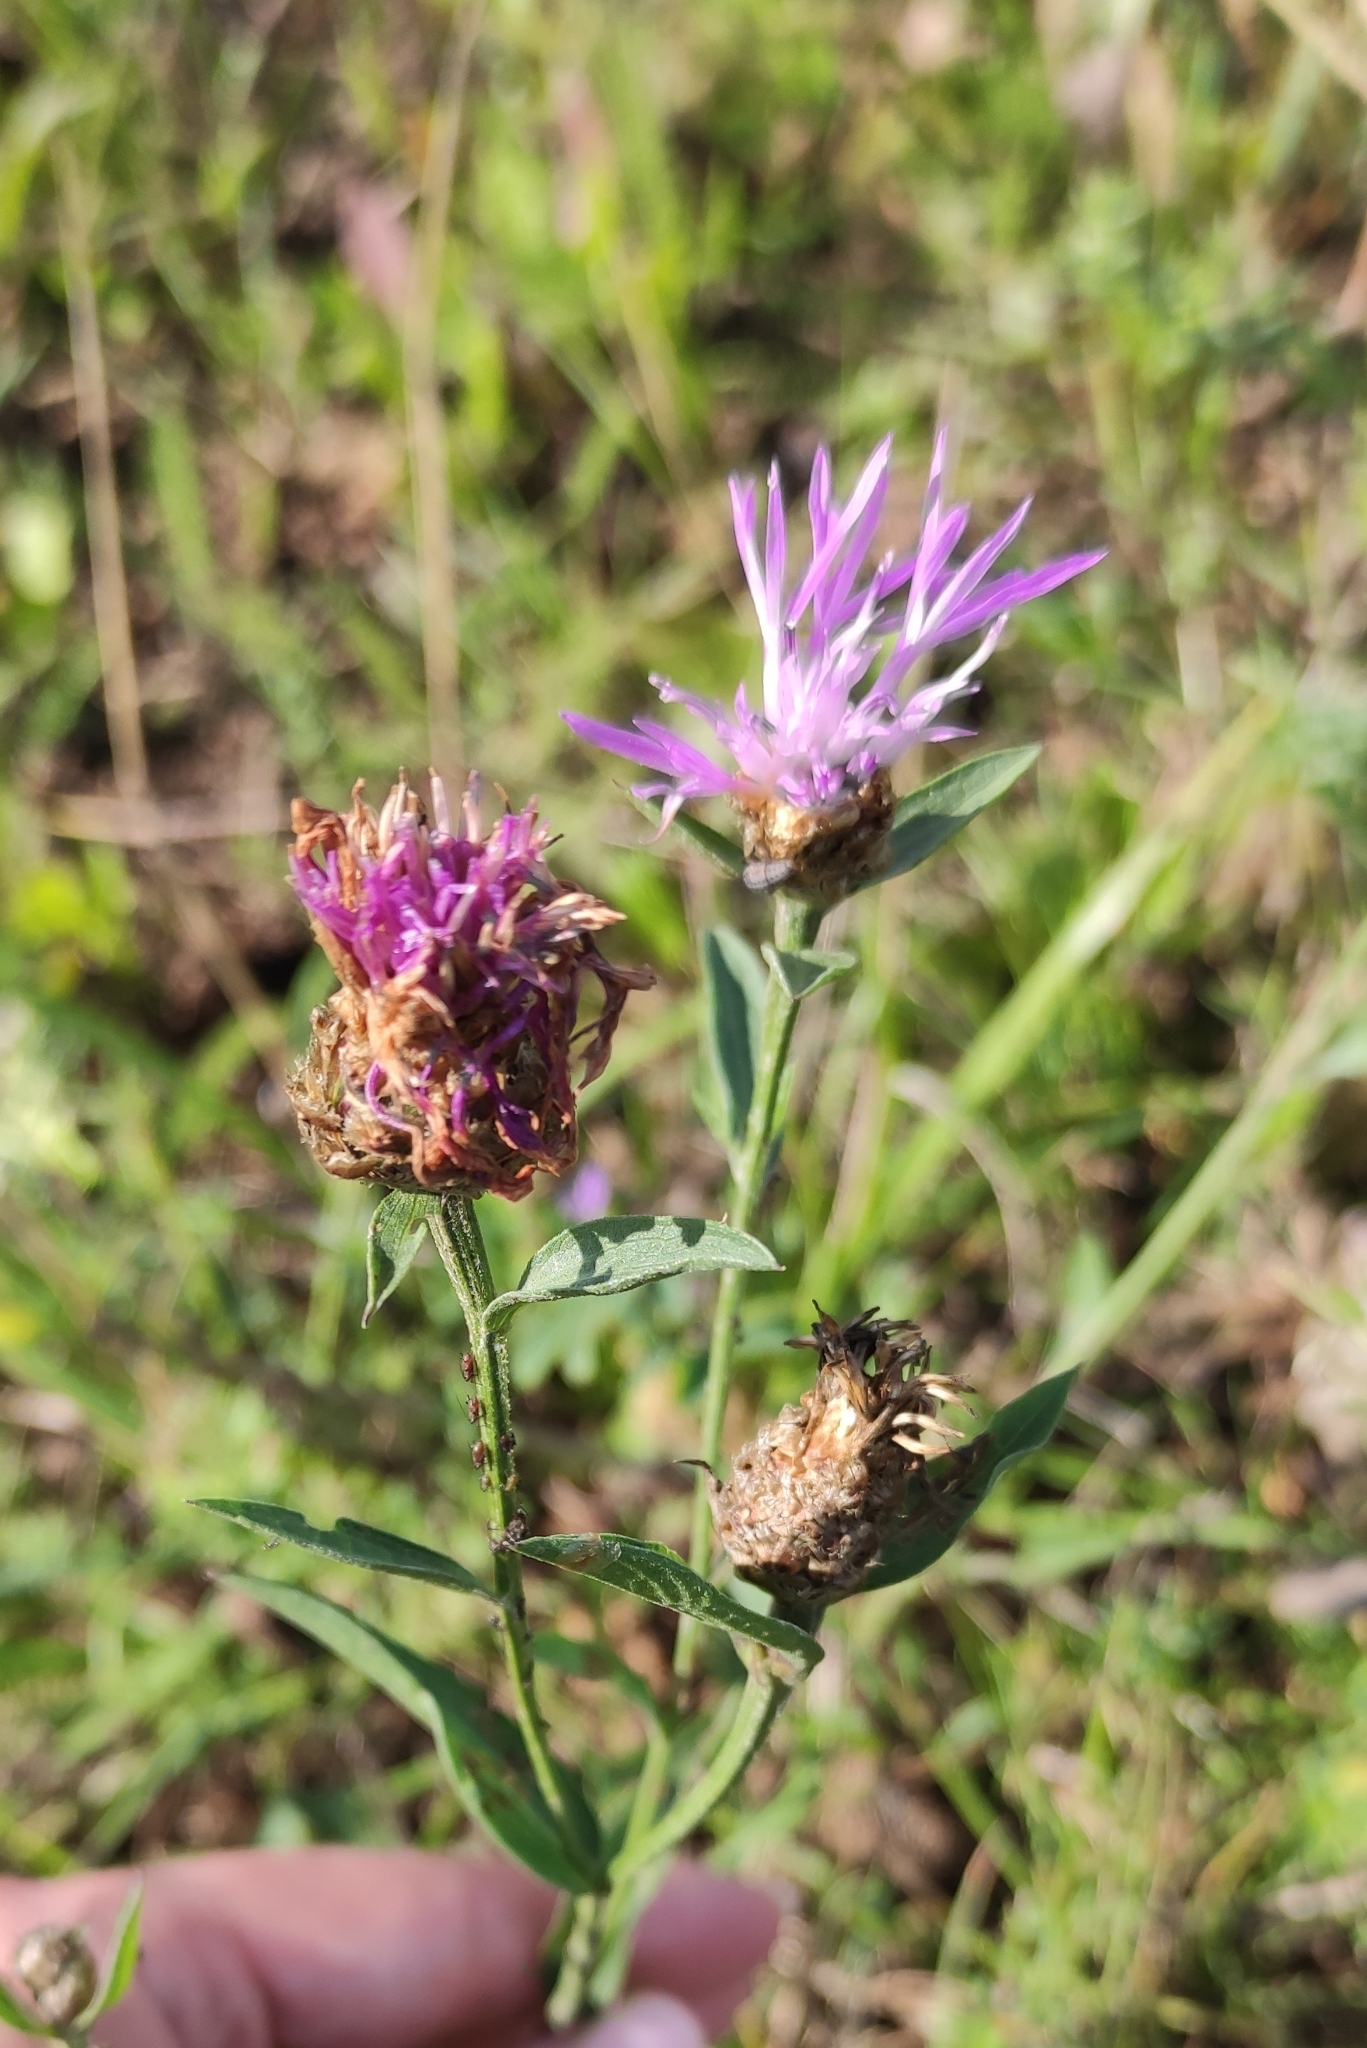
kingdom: Plantae
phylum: Tracheophyta
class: Magnoliopsida
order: Asterales
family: Asteraceae
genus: Centaurea
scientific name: Centaurea jacea
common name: Brown knapweed
